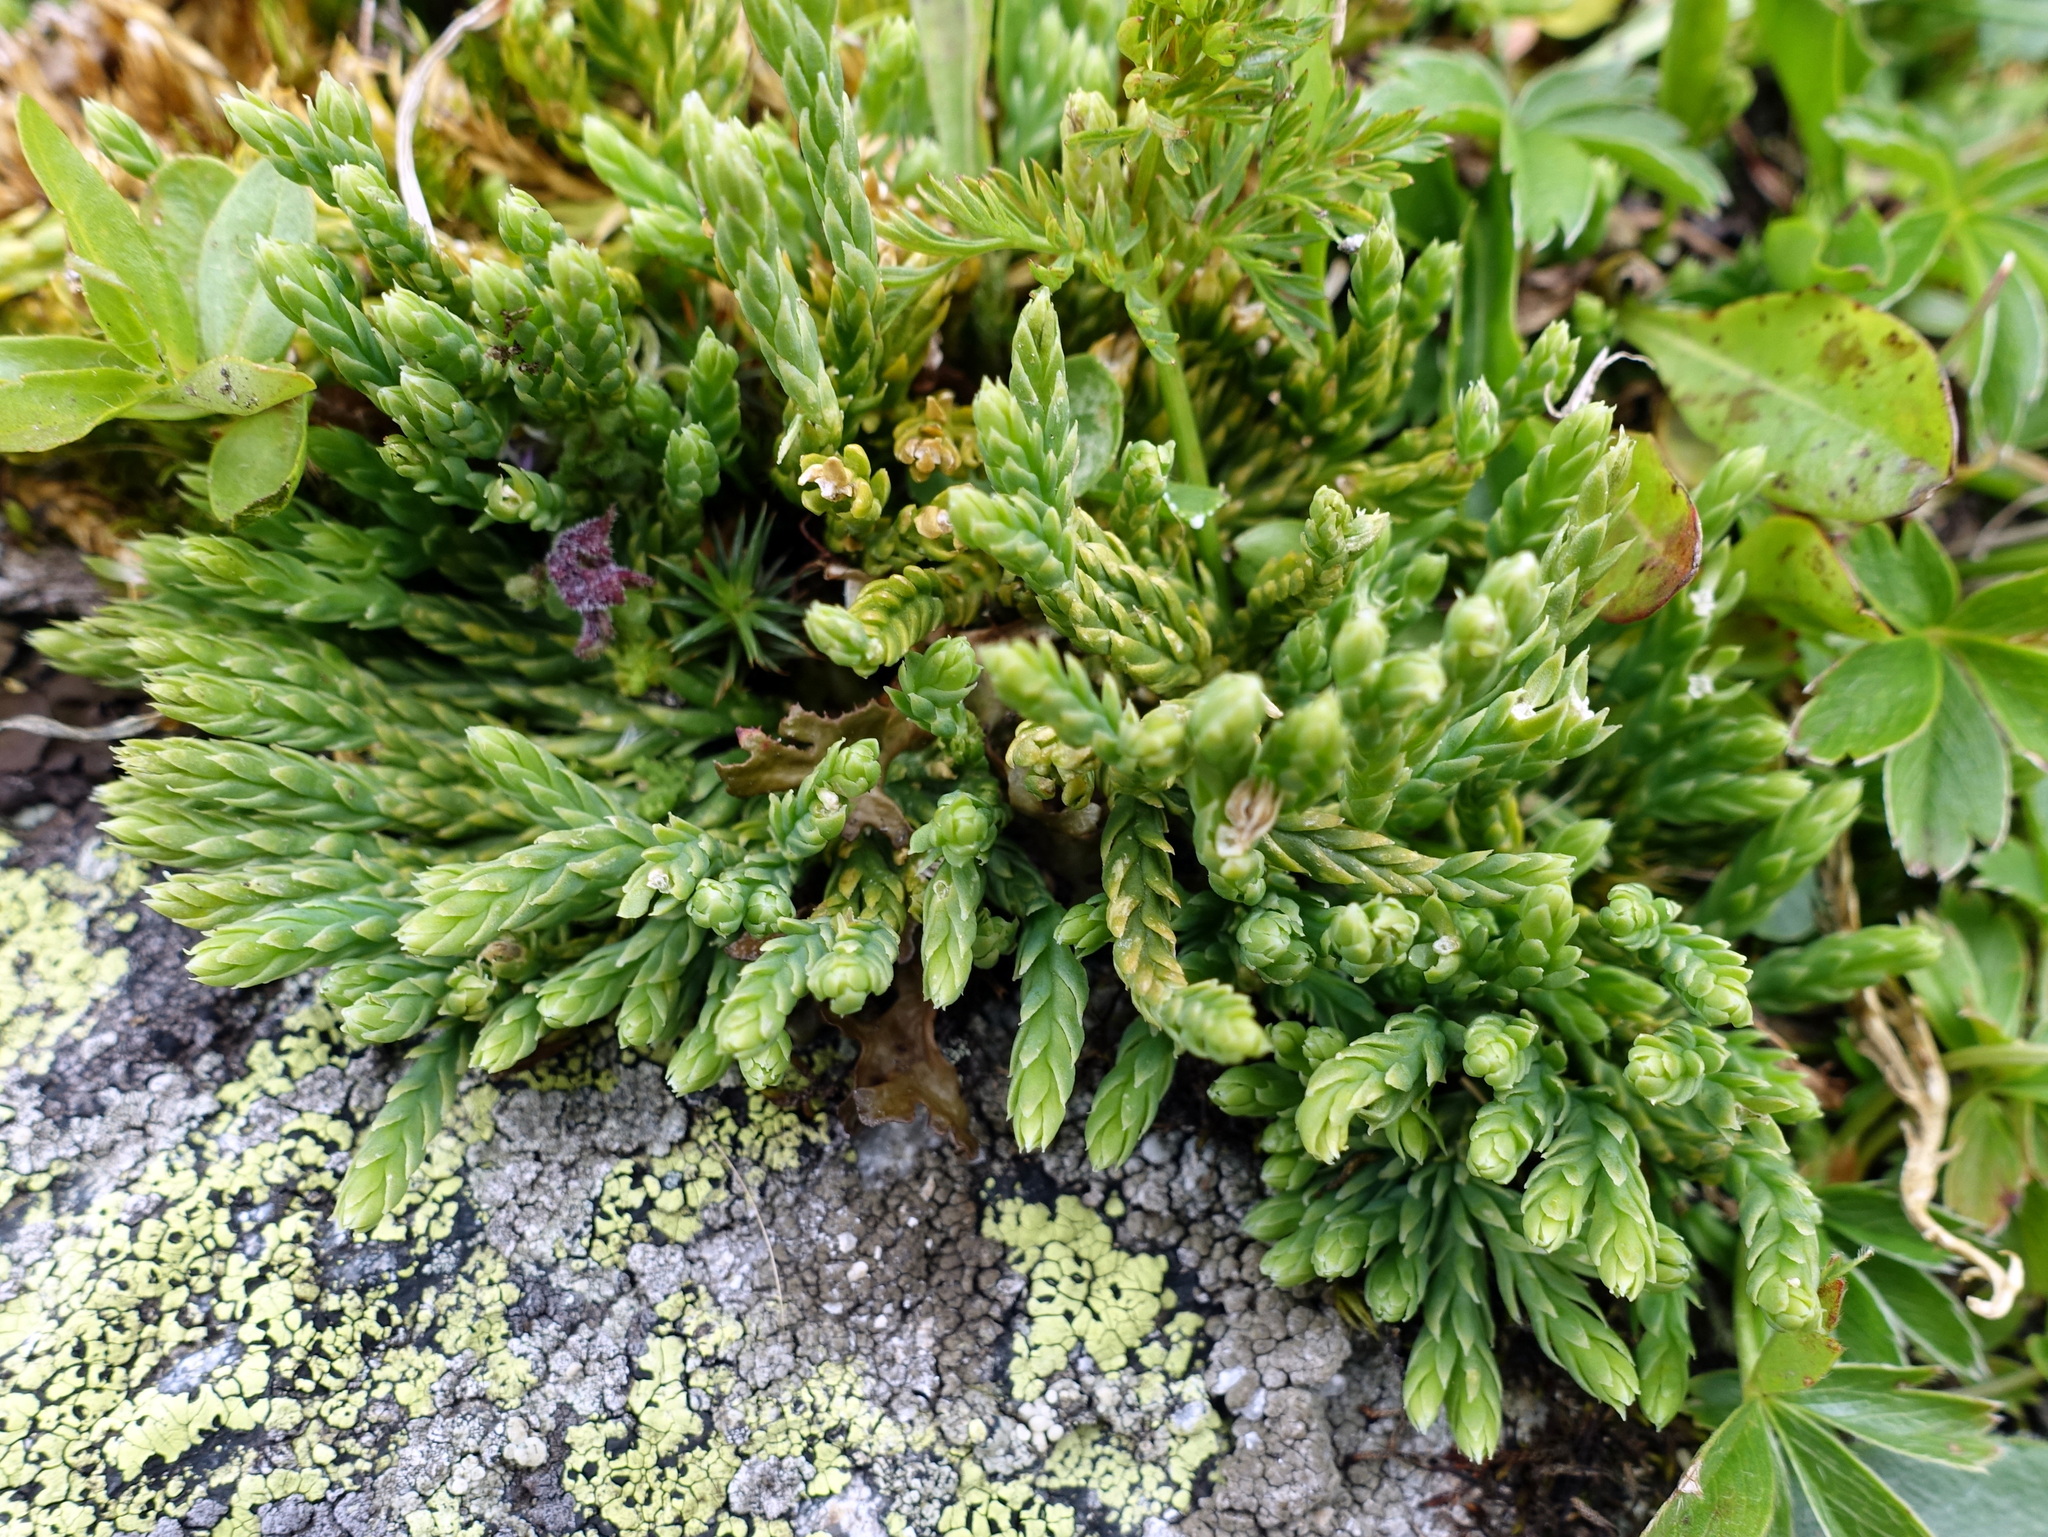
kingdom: Plantae
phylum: Tracheophyta
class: Lycopodiopsida
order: Lycopodiales
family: Lycopodiaceae
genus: Diphasiastrum
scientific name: Diphasiastrum alpinum
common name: Alpine clubmoss
